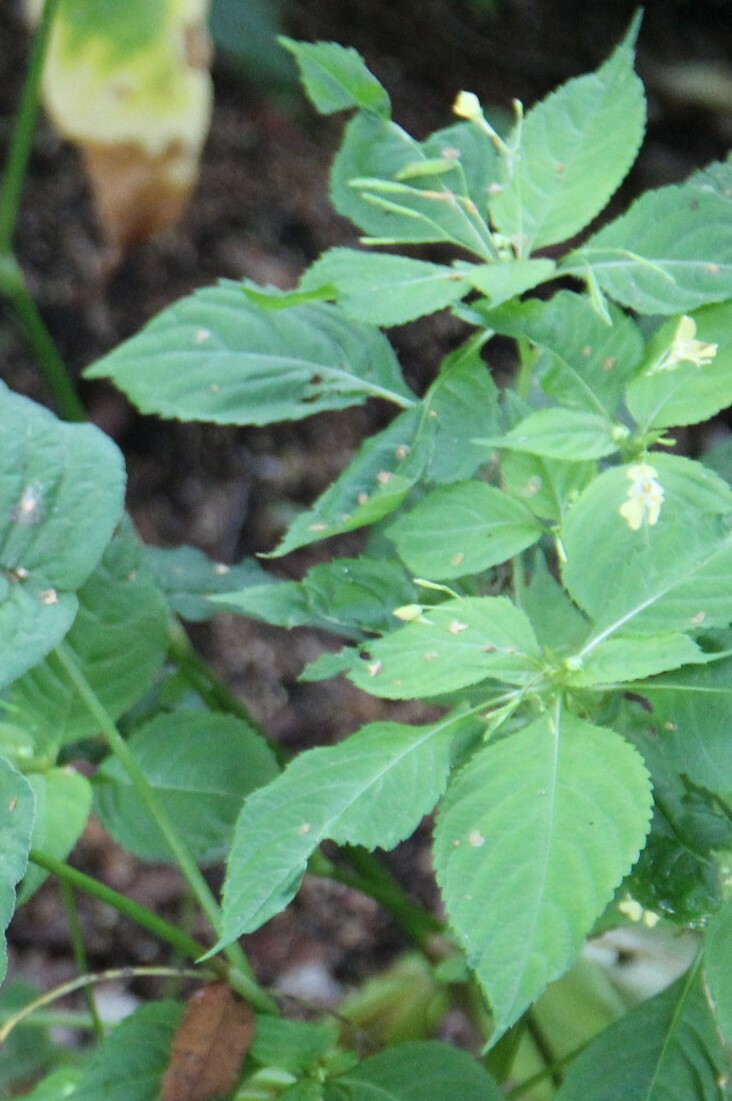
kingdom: Plantae
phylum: Tracheophyta
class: Magnoliopsida
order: Ericales
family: Balsaminaceae
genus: Impatiens
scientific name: Impatiens parviflora
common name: Small balsam
